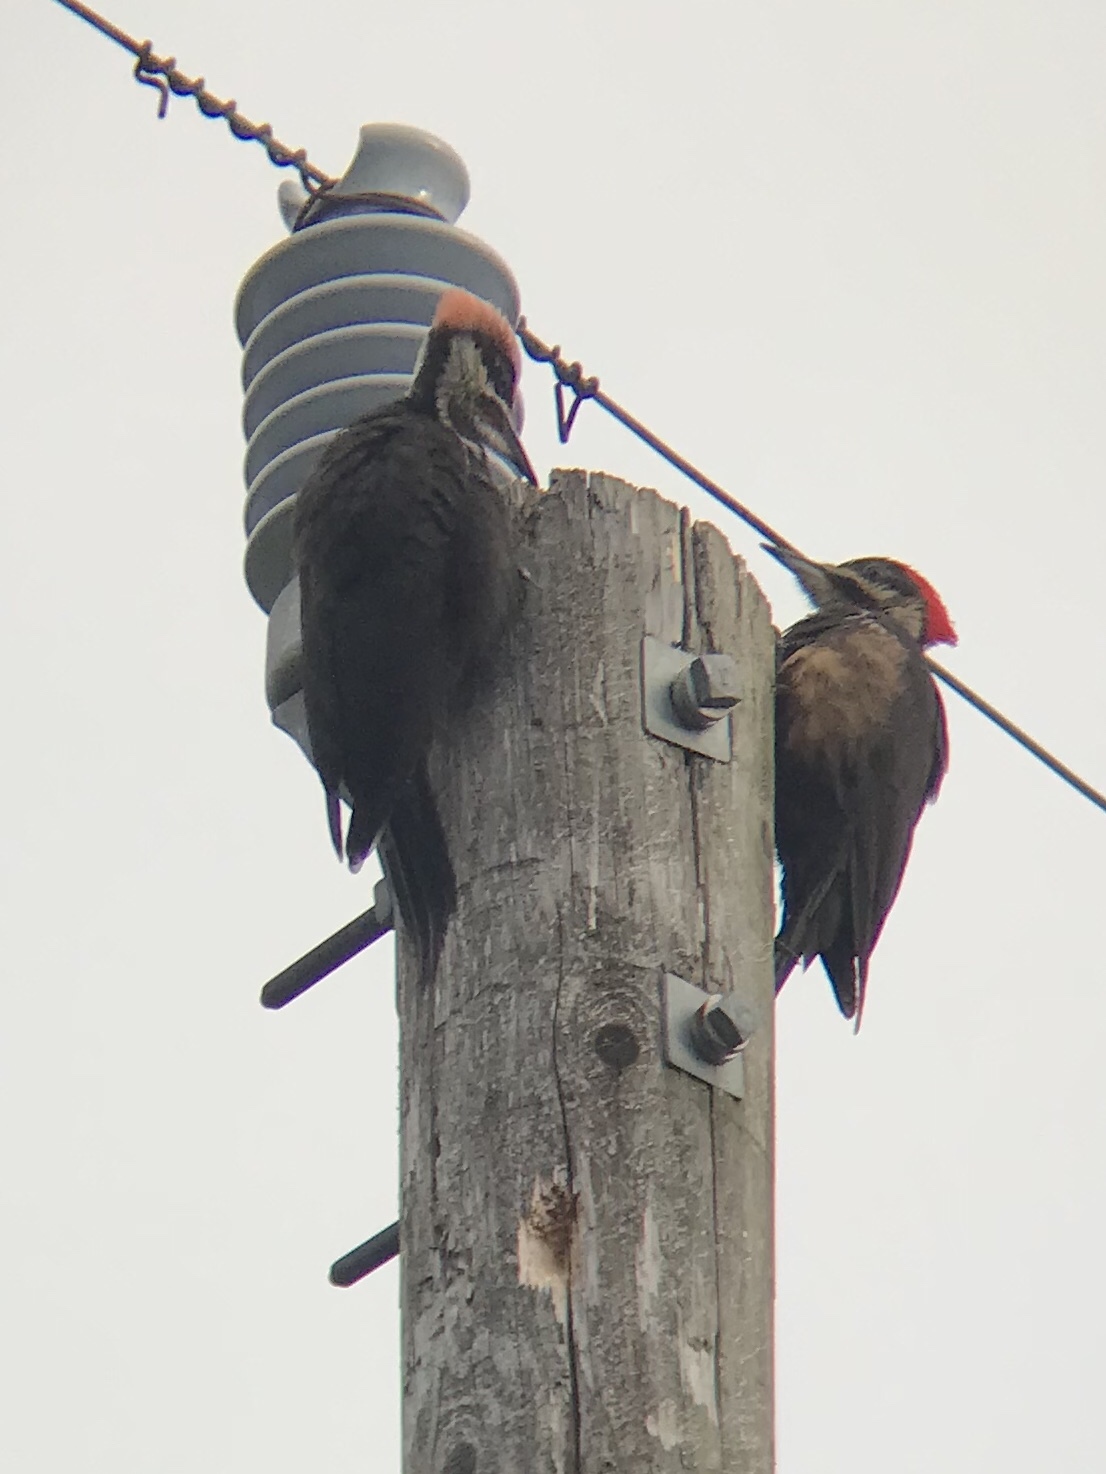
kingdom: Animalia
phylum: Chordata
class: Aves
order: Piciformes
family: Picidae
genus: Dryocopus
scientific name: Dryocopus pileatus
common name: Pileated woodpecker
